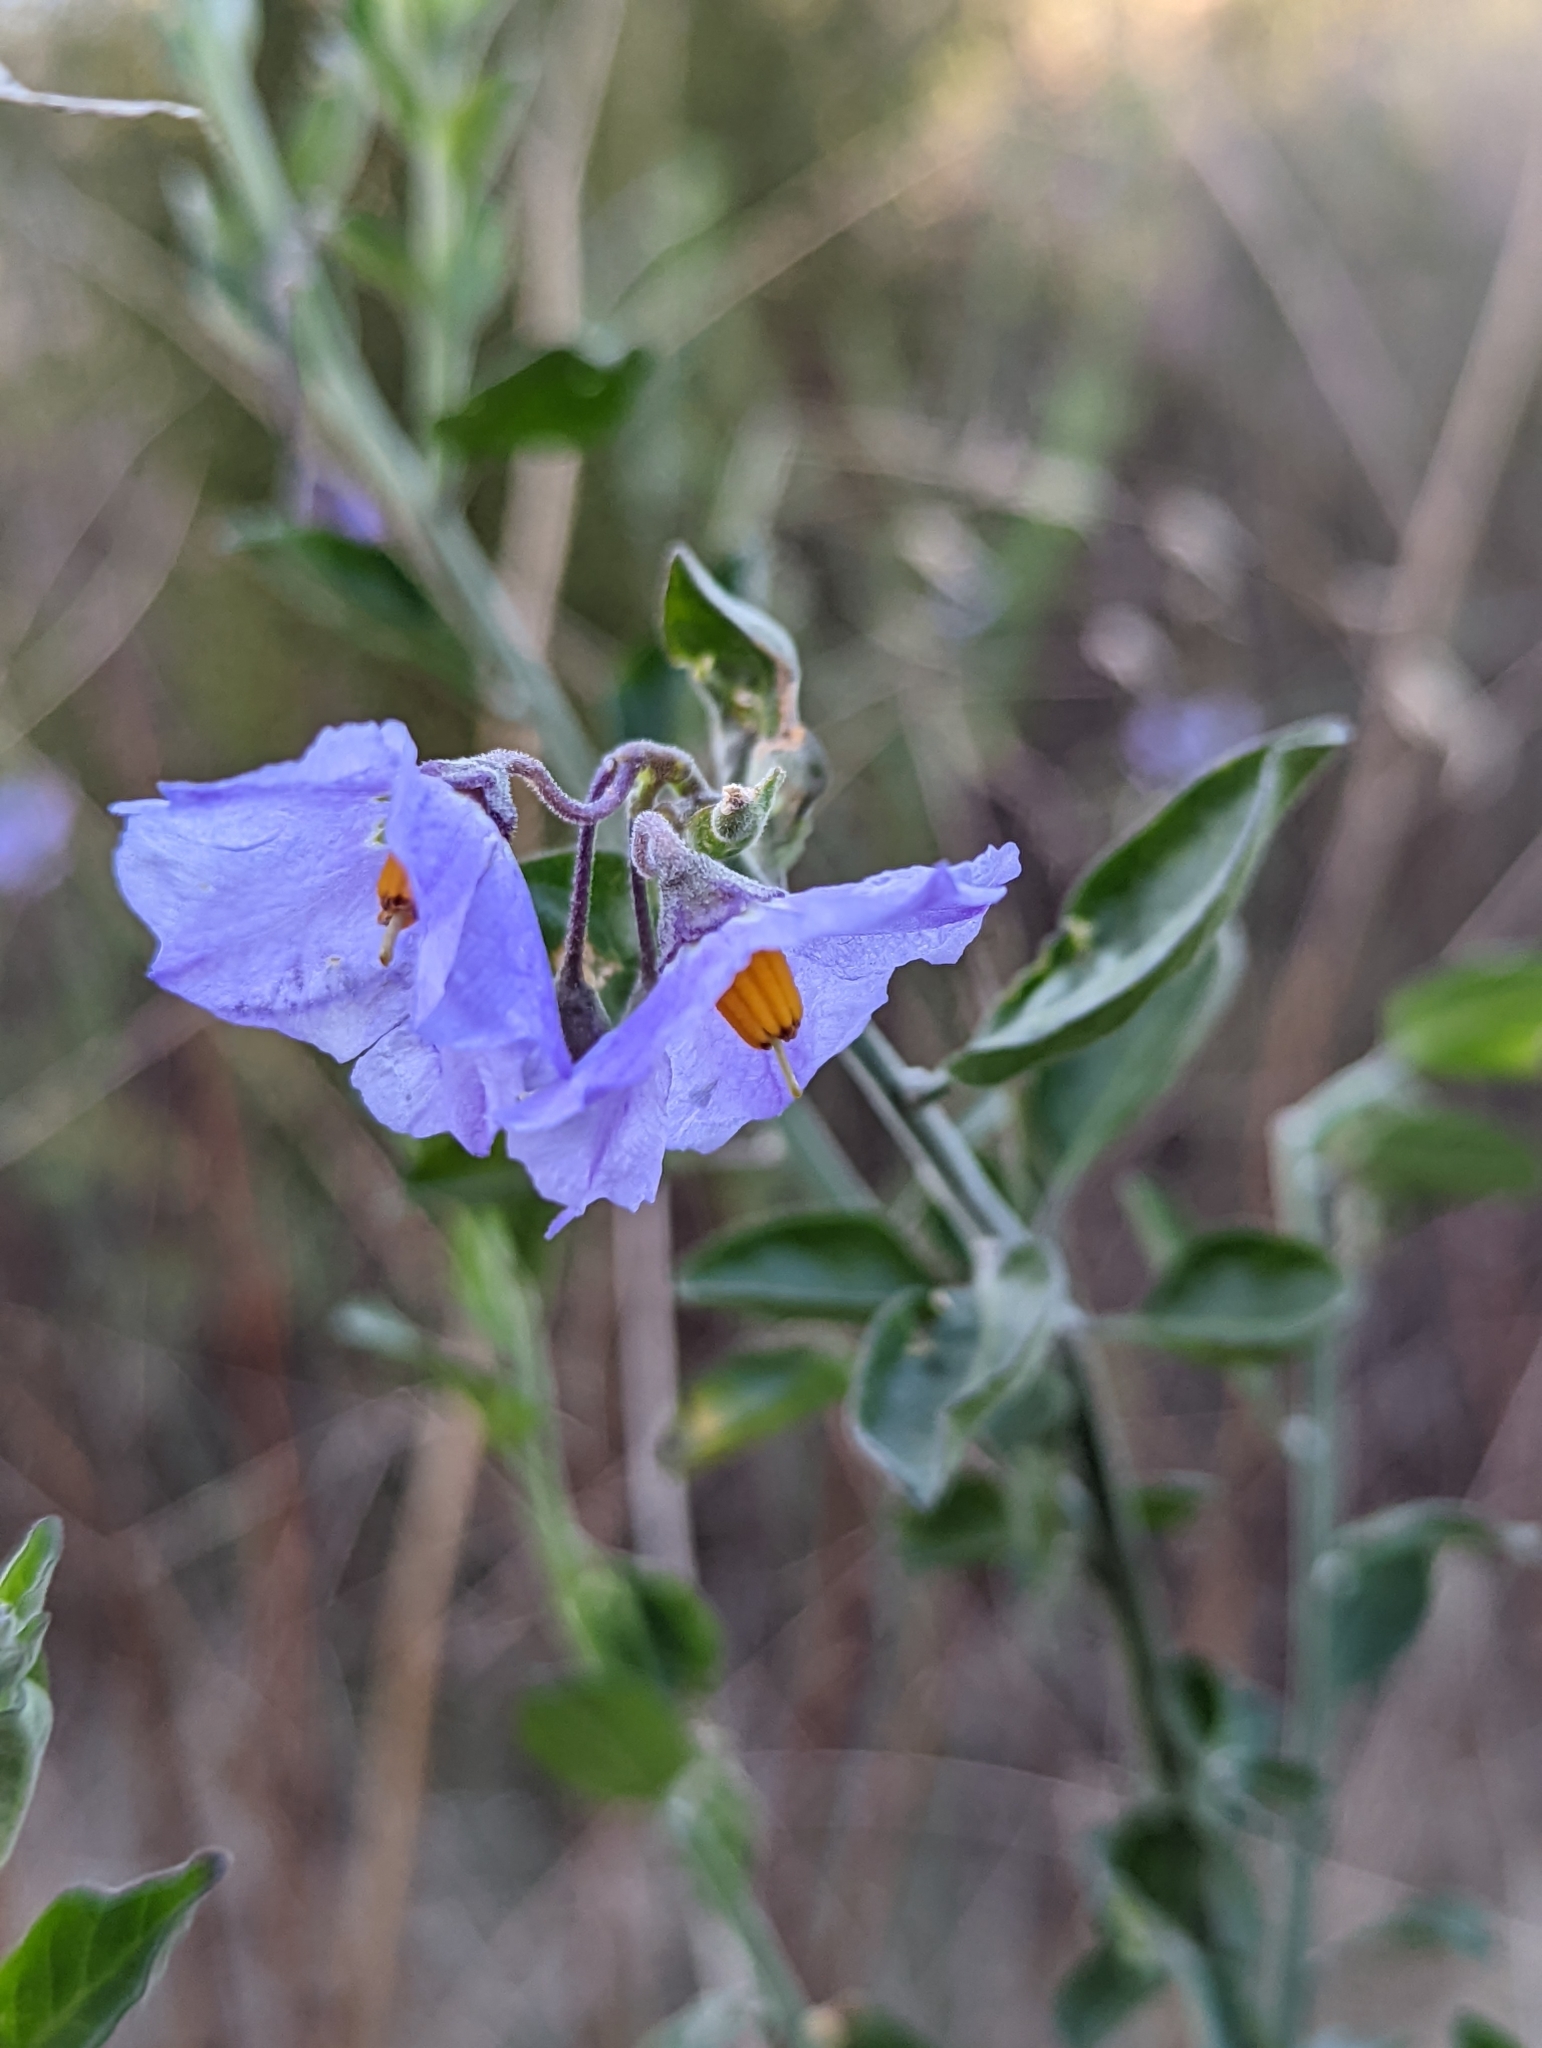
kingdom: Plantae
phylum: Tracheophyta
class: Magnoliopsida
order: Solanales
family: Solanaceae
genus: Solanum
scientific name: Solanum umbelliferum
